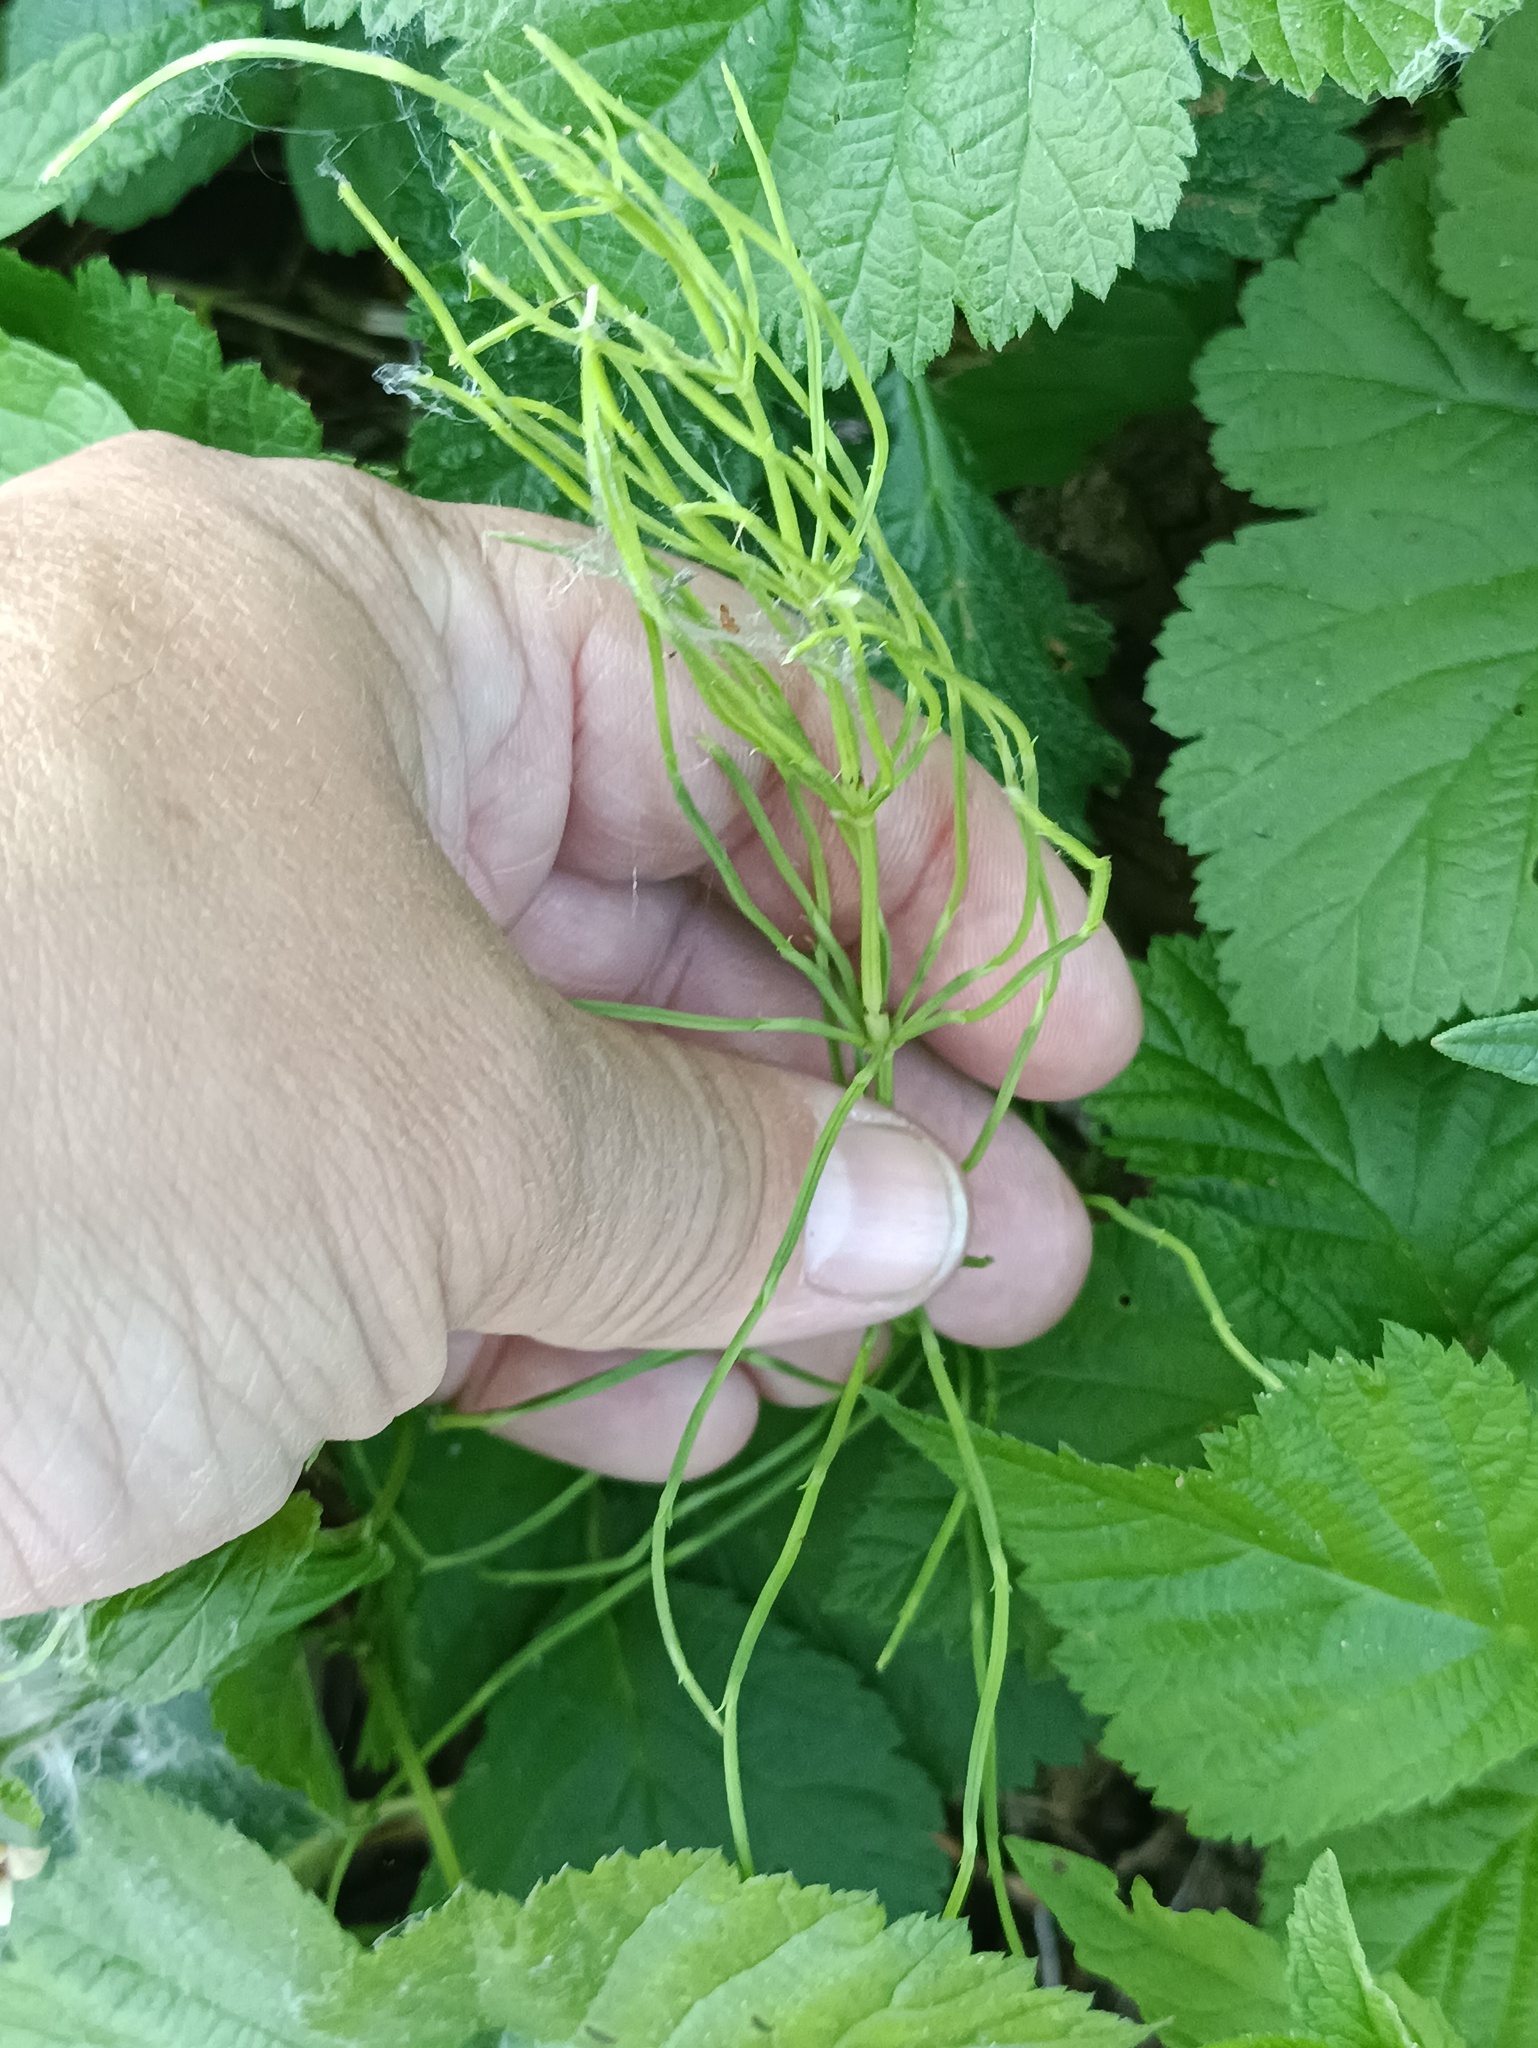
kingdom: Plantae
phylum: Tracheophyta
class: Polypodiopsida
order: Equisetales
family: Equisetaceae
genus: Equisetum
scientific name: Equisetum arvense
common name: Field horsetail
